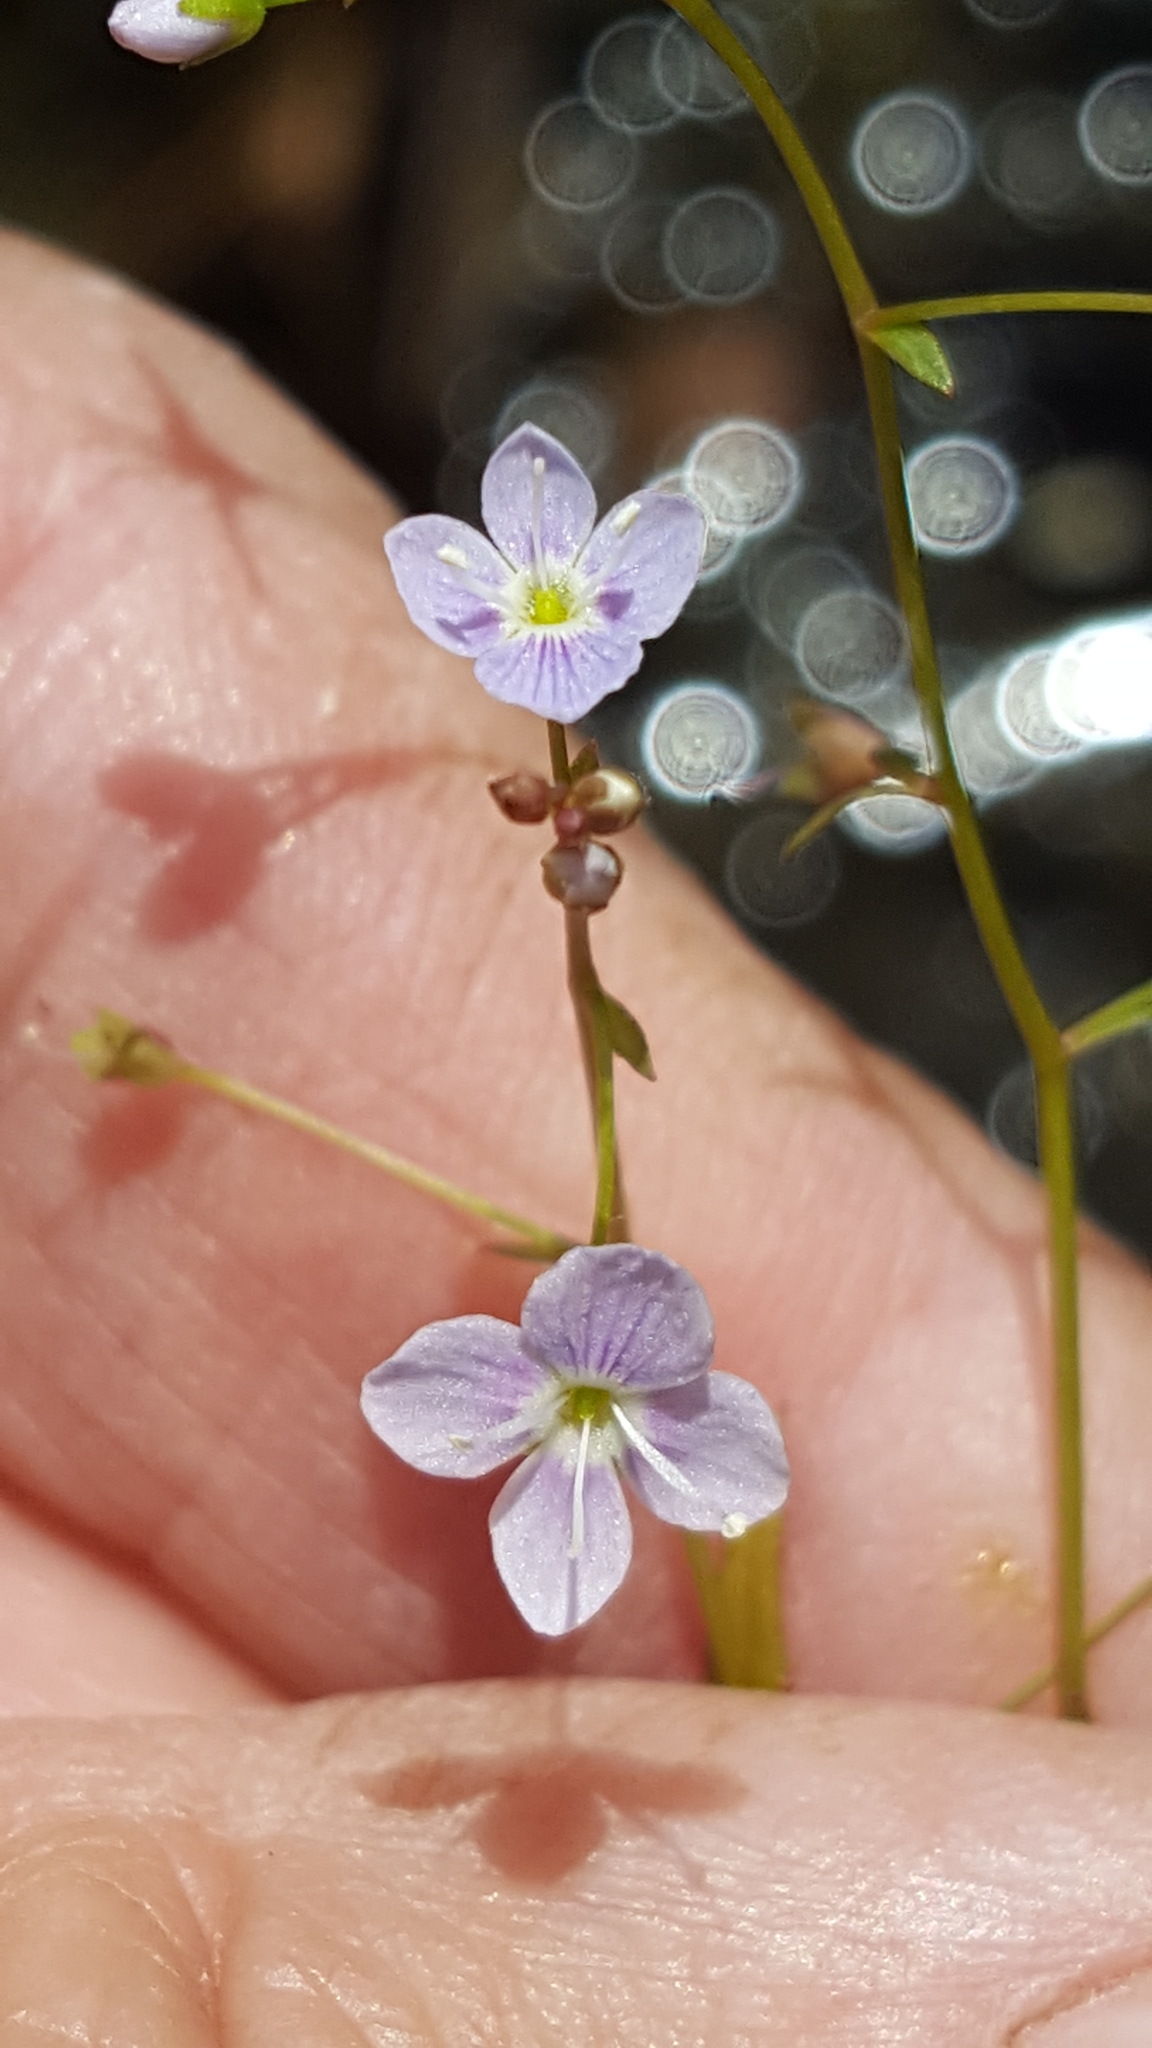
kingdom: Plantae
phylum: Tracheophyta
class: Magnoliopsida
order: Lamiales
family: Plantaginaceae
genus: Veronica
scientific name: Veronica scutellata
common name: Marsh speedwell
